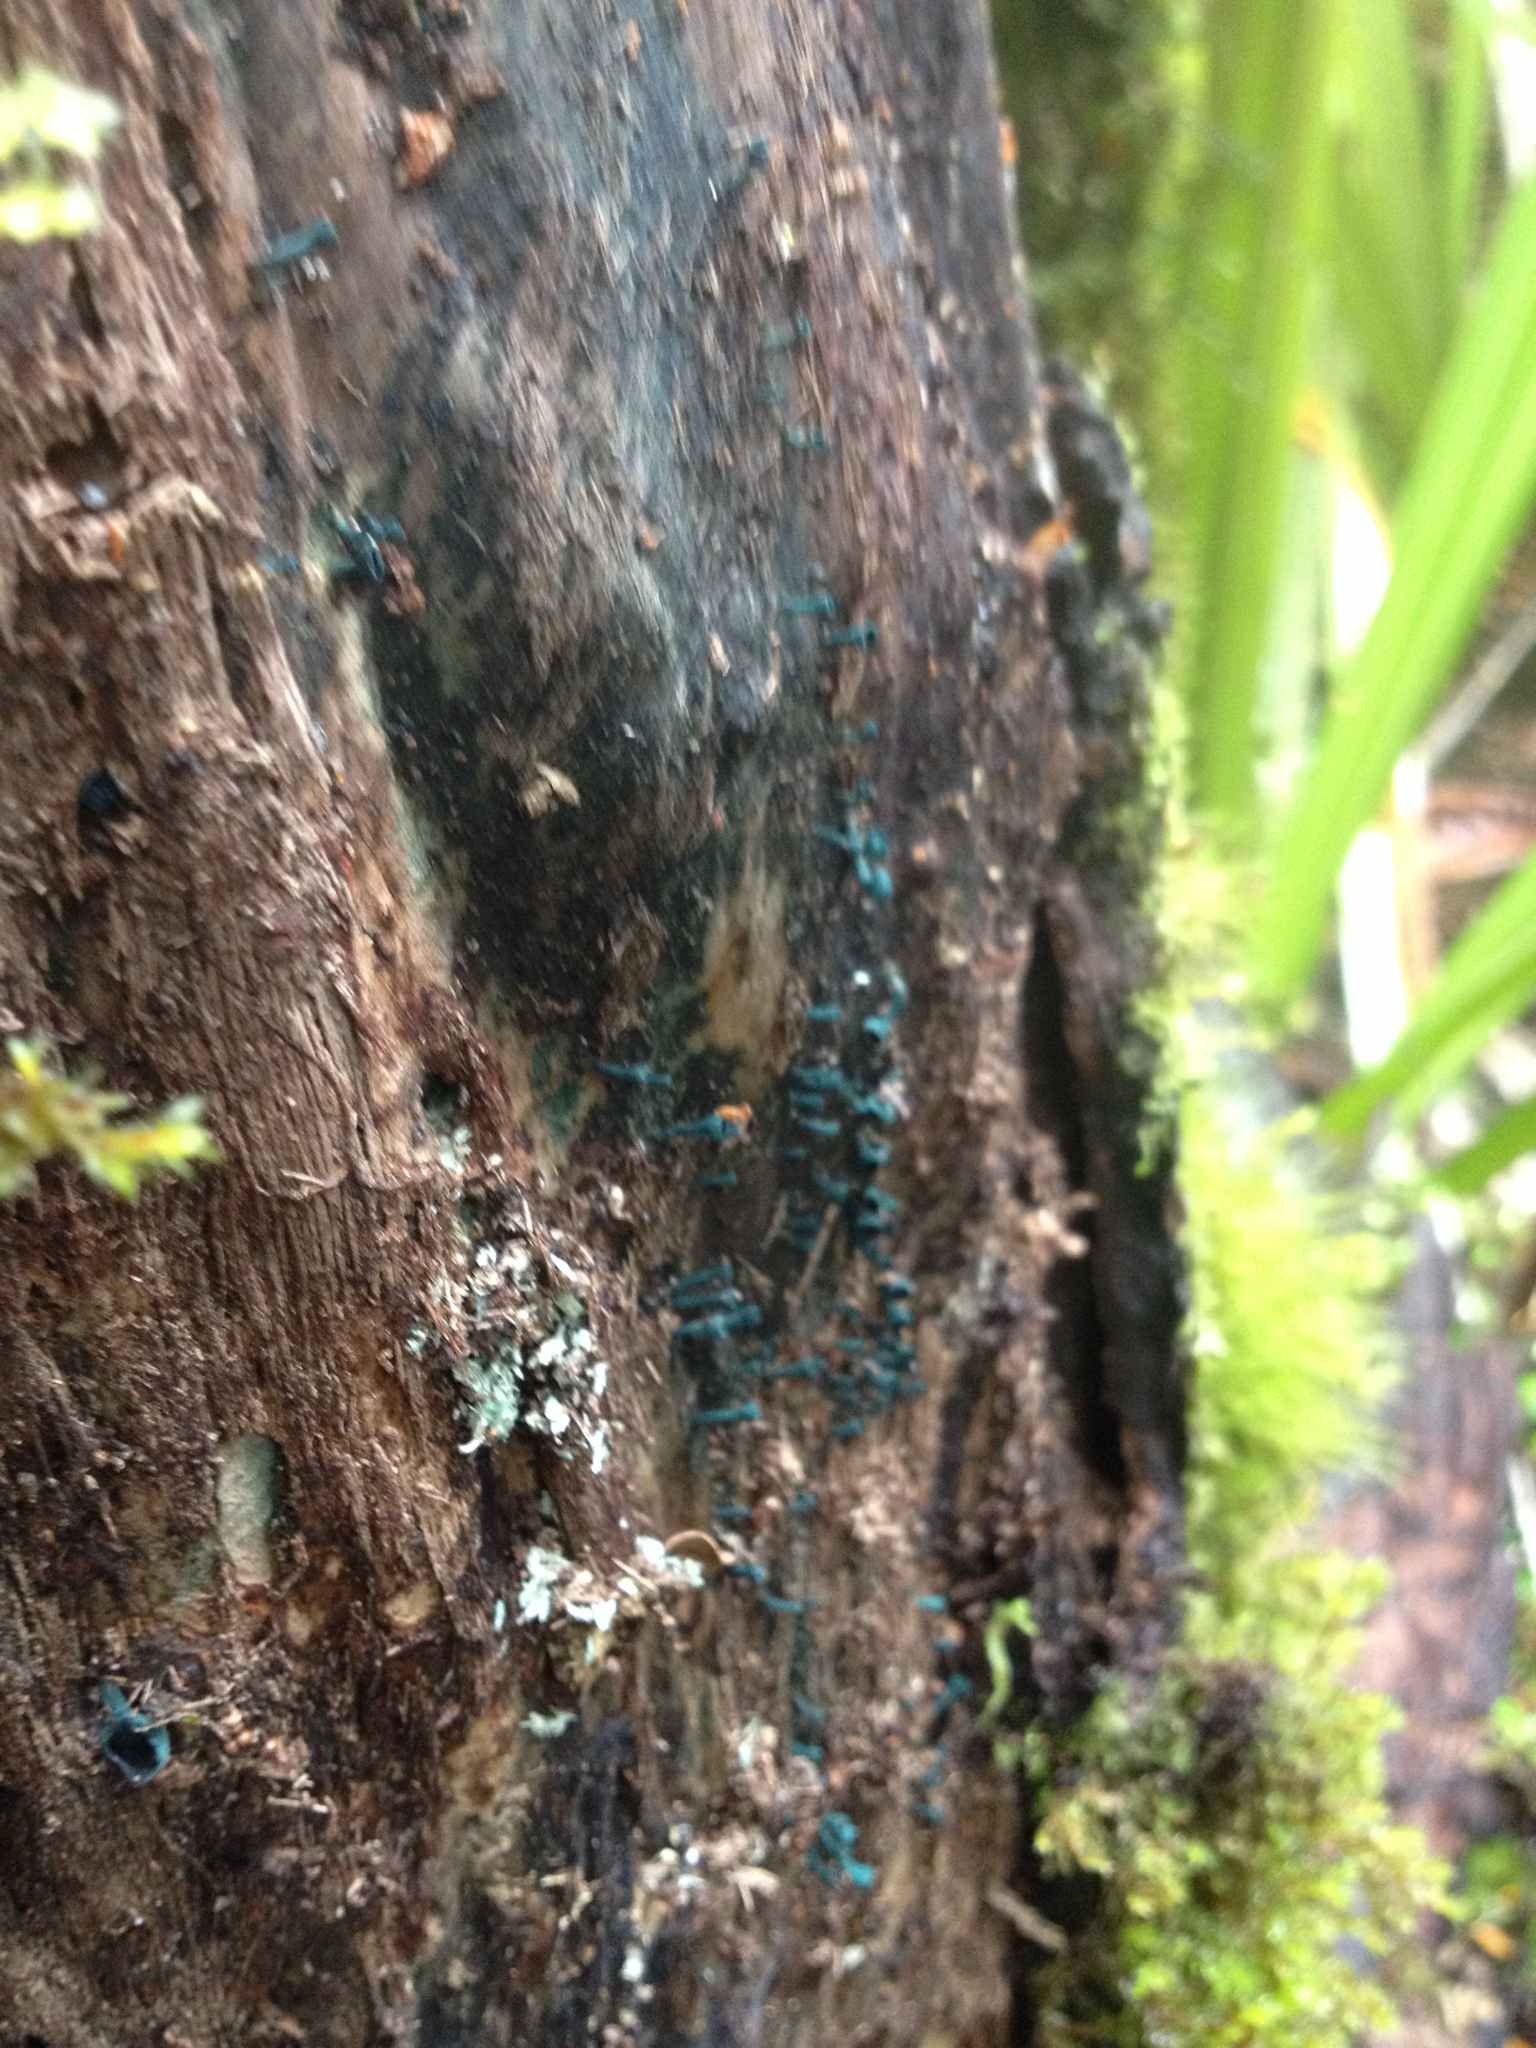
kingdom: Fungi
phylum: Ascomycota
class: Leotiomycetes
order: Helotiales
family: Chlorociboriaceae
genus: Chlorociboria
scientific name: Chlorociboria
